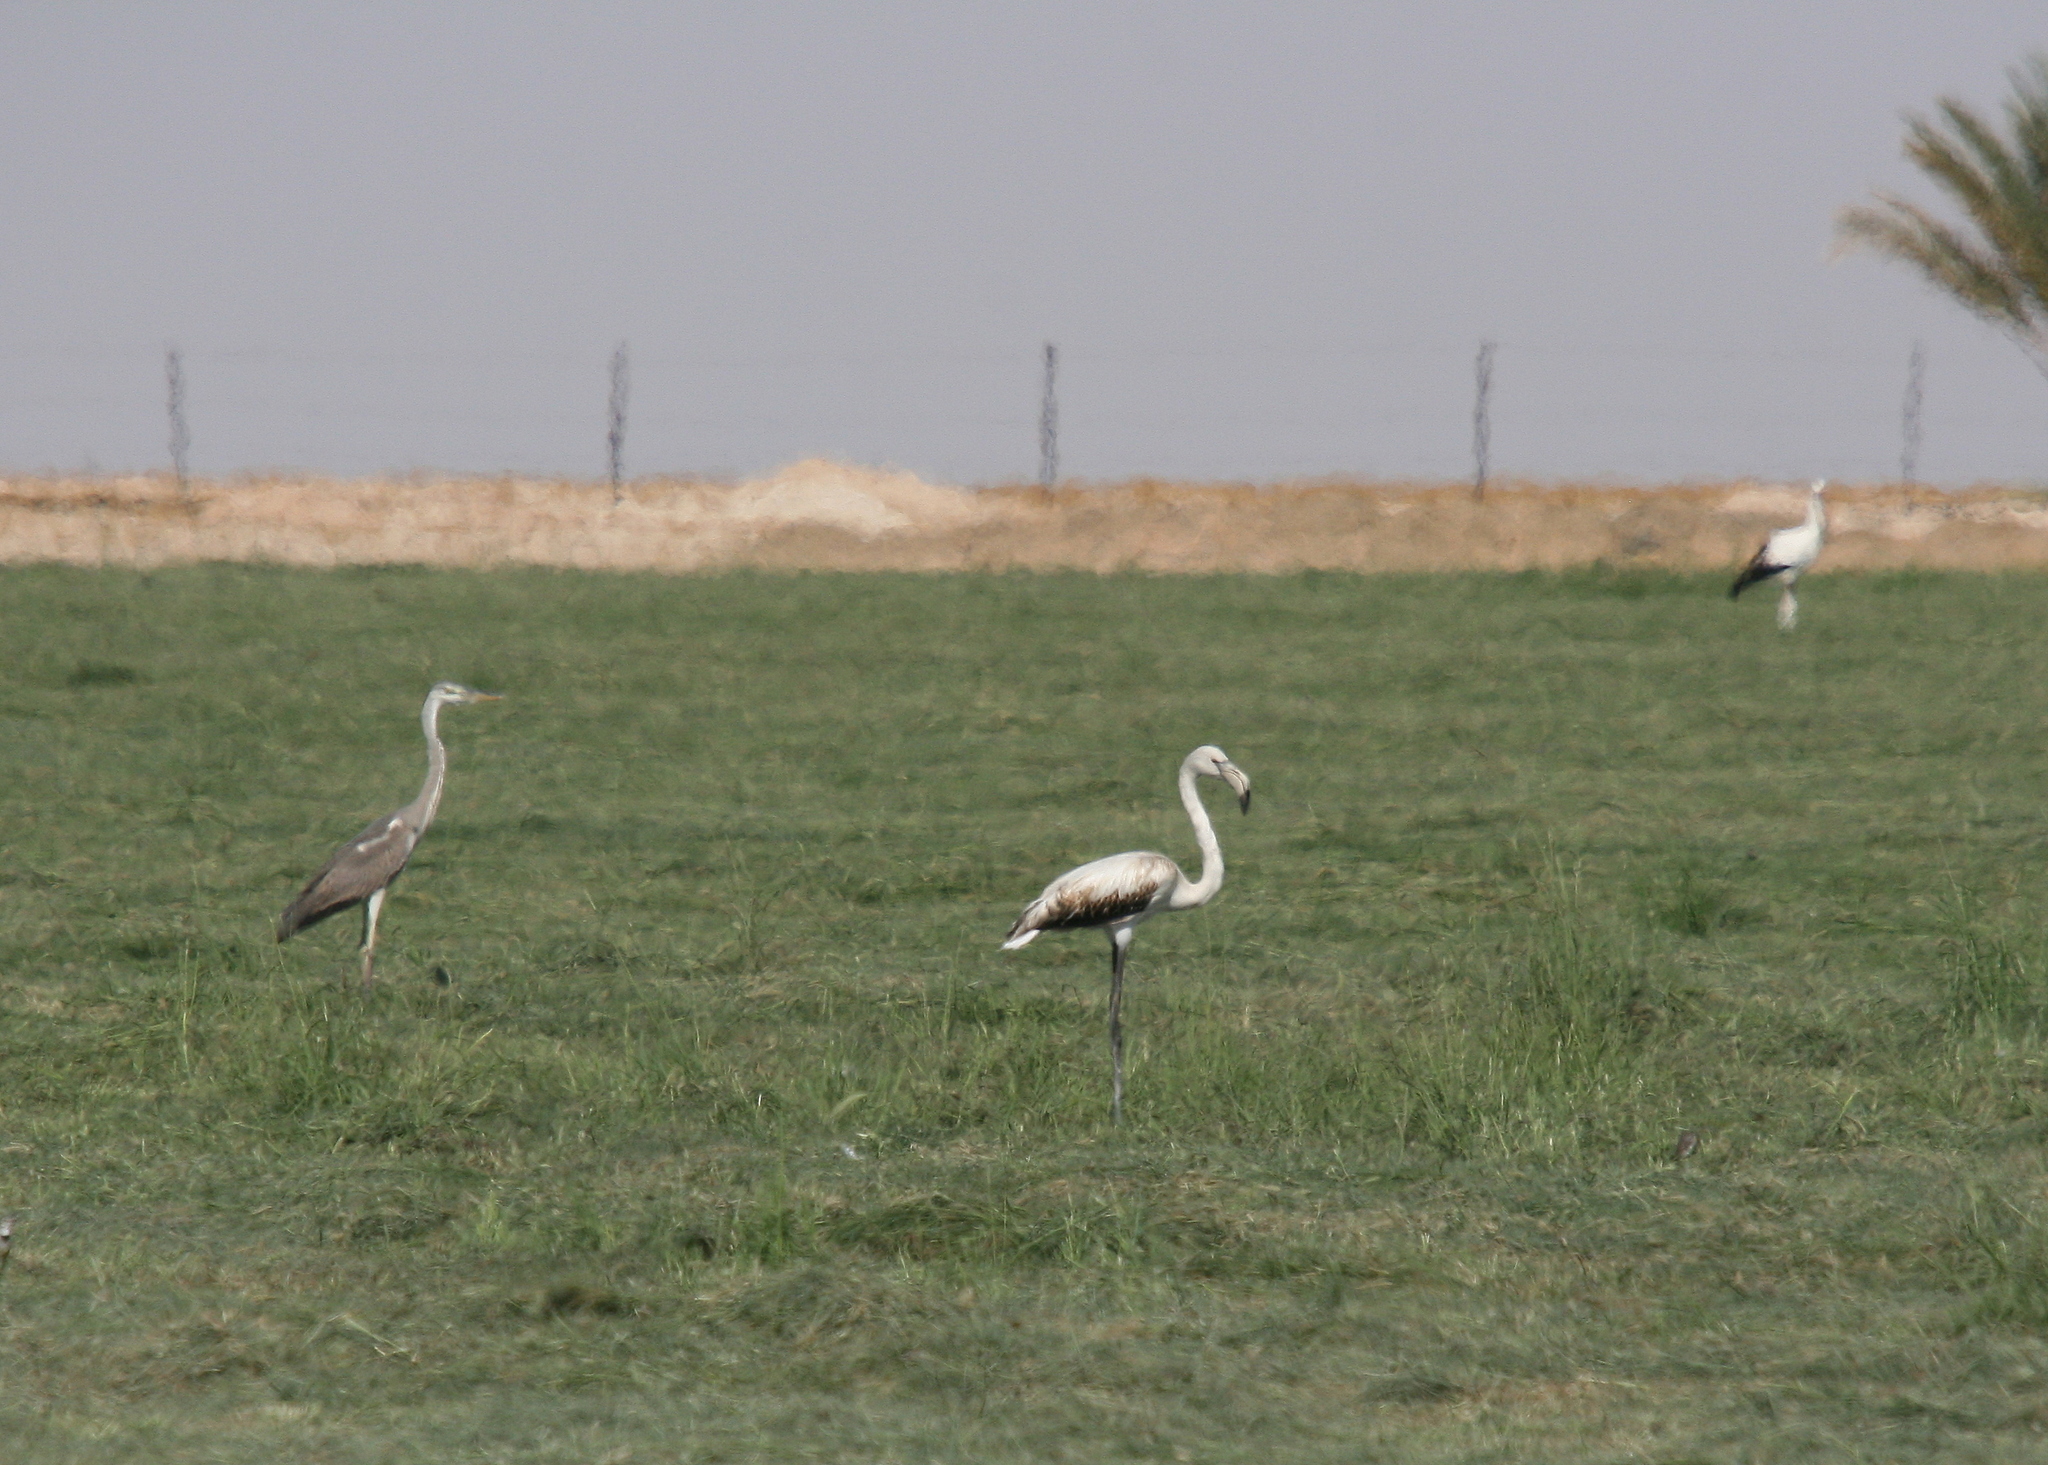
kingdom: Animalia
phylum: Chordata
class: Aves
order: Phoenicopteriformes
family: Phoenicopteridae
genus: Phoenicopterus
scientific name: Phoenicopterus roseus
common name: Greater flamingo
